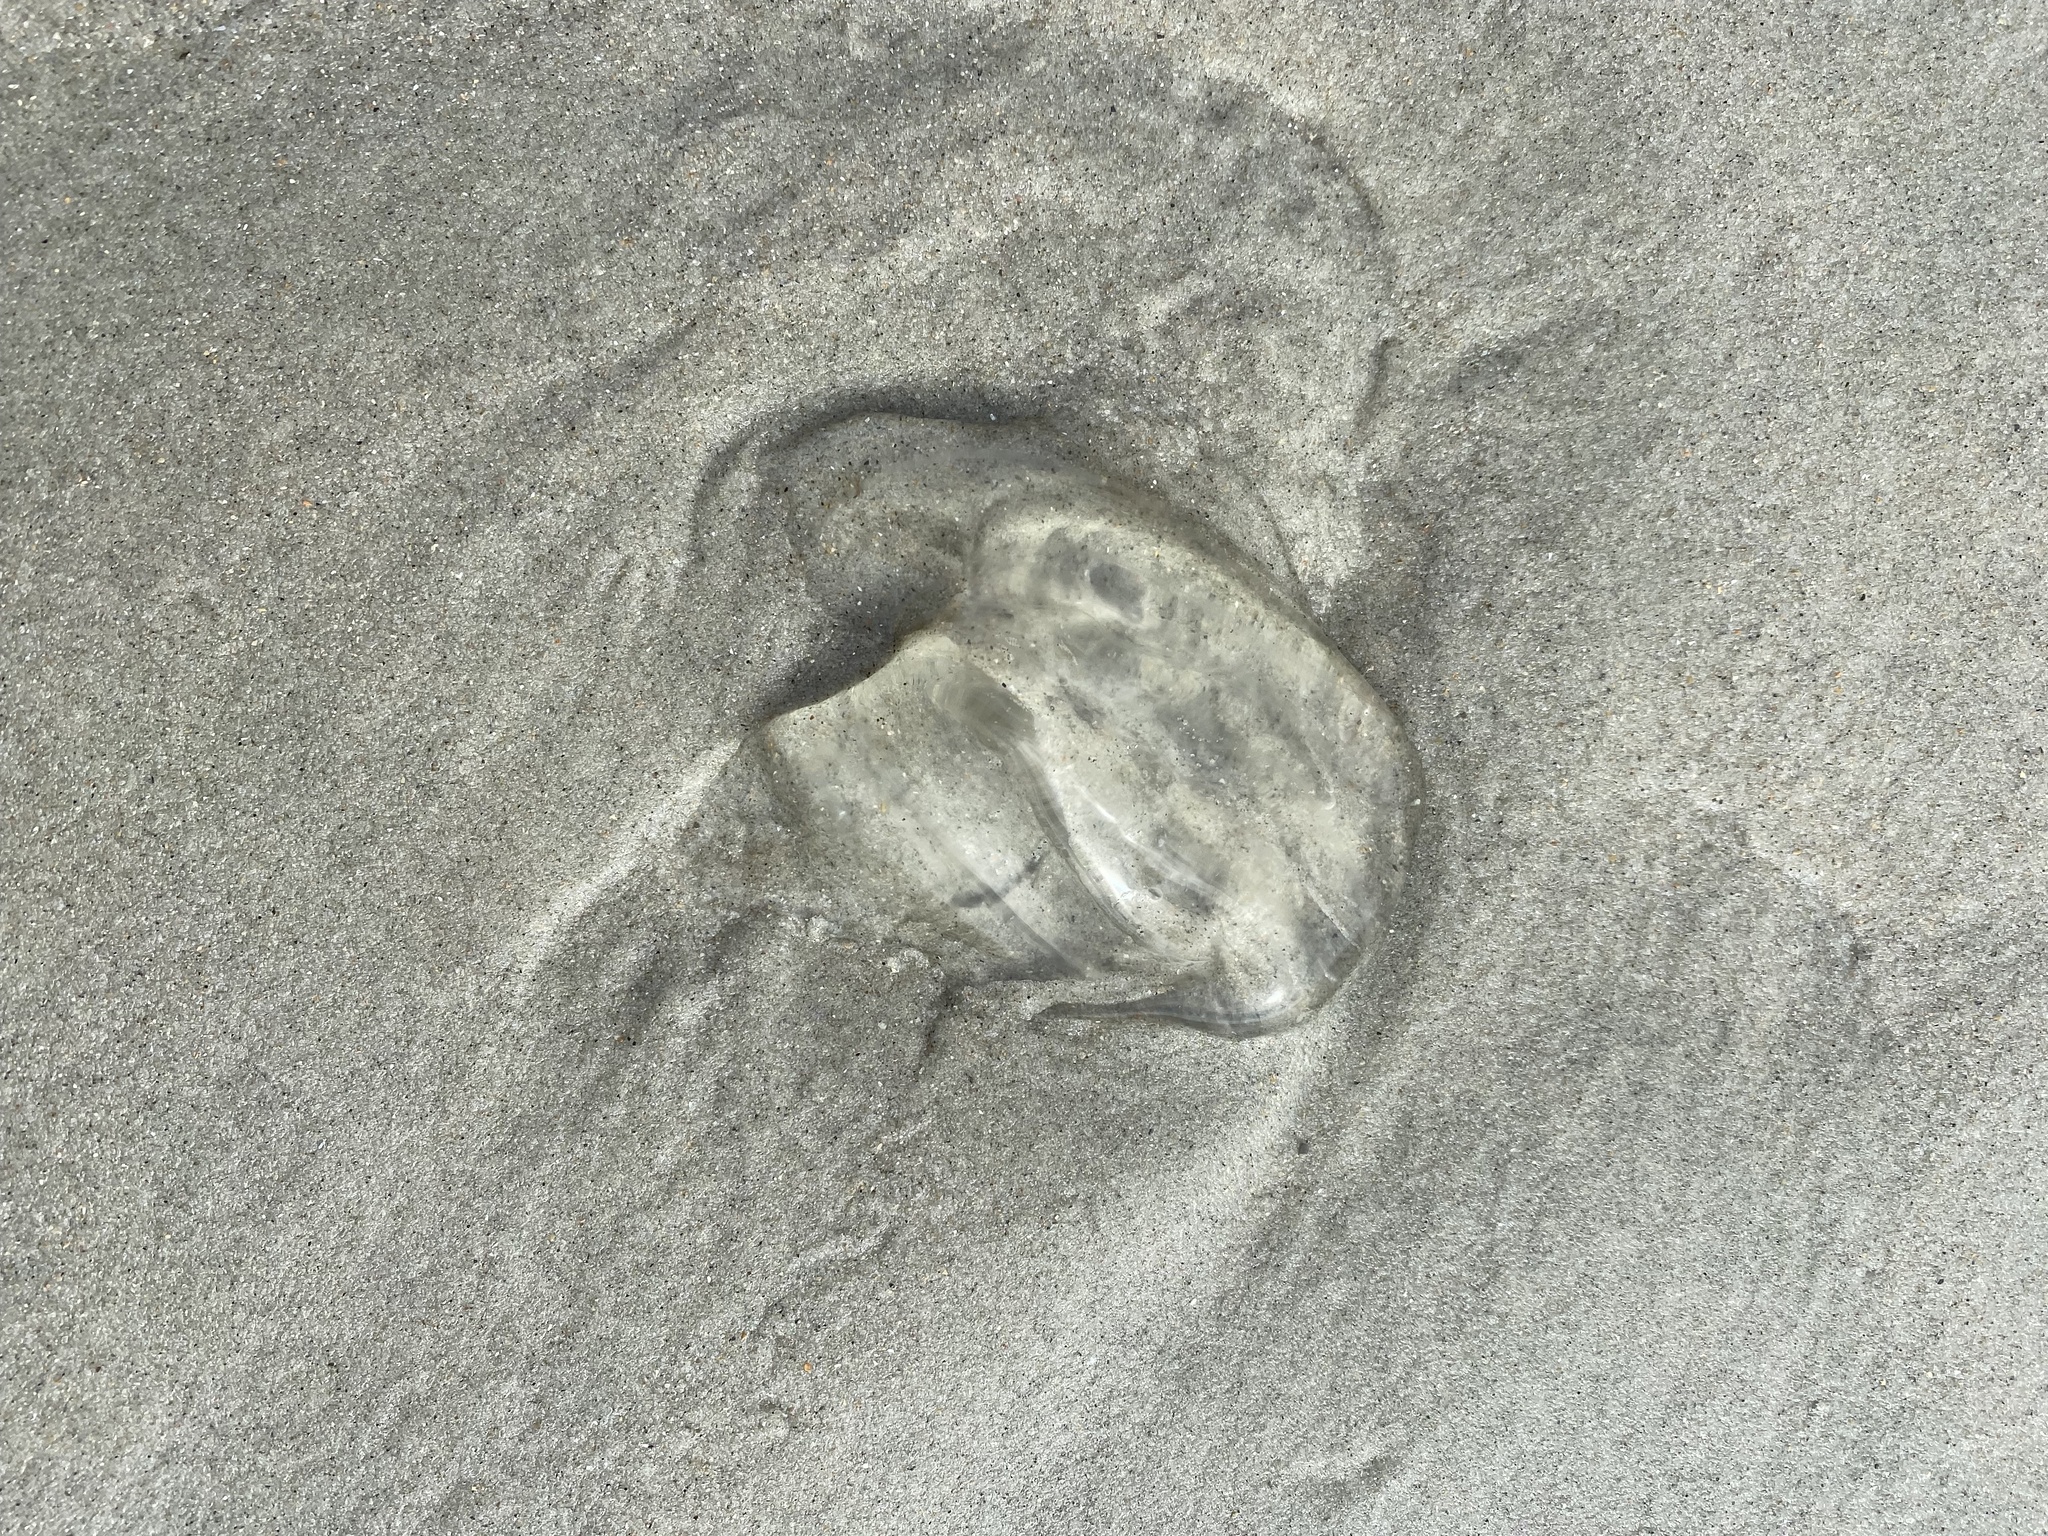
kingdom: Animalia
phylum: Ctenophora
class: Tentaculata
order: Lobata
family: Bolinopsidae
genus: Mnemiopsis
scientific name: Mnemiopsis leidyi
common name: American comb jelly
